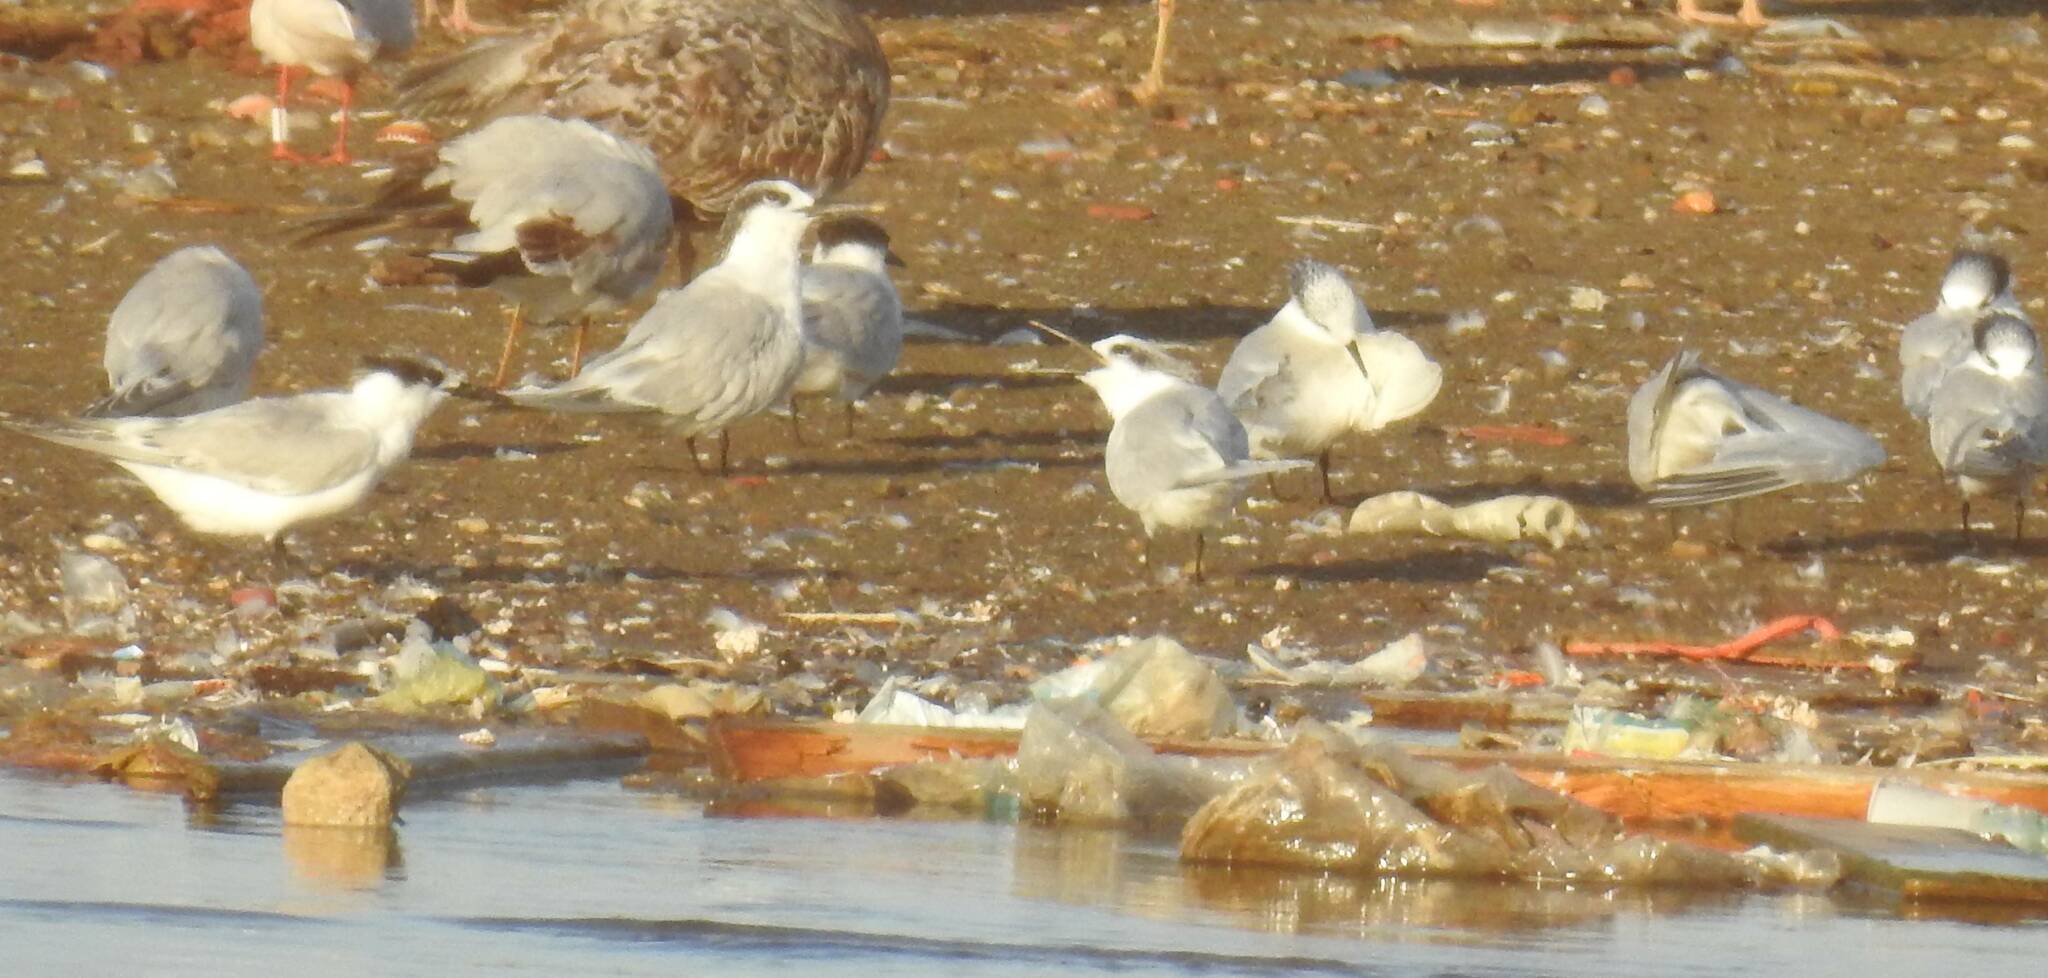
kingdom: Animalia
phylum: Chordata
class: Aves
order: Charadriiformes
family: Laridae
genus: Thalasseus
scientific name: Thalasseus sandvicensis
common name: Sandwich tern
